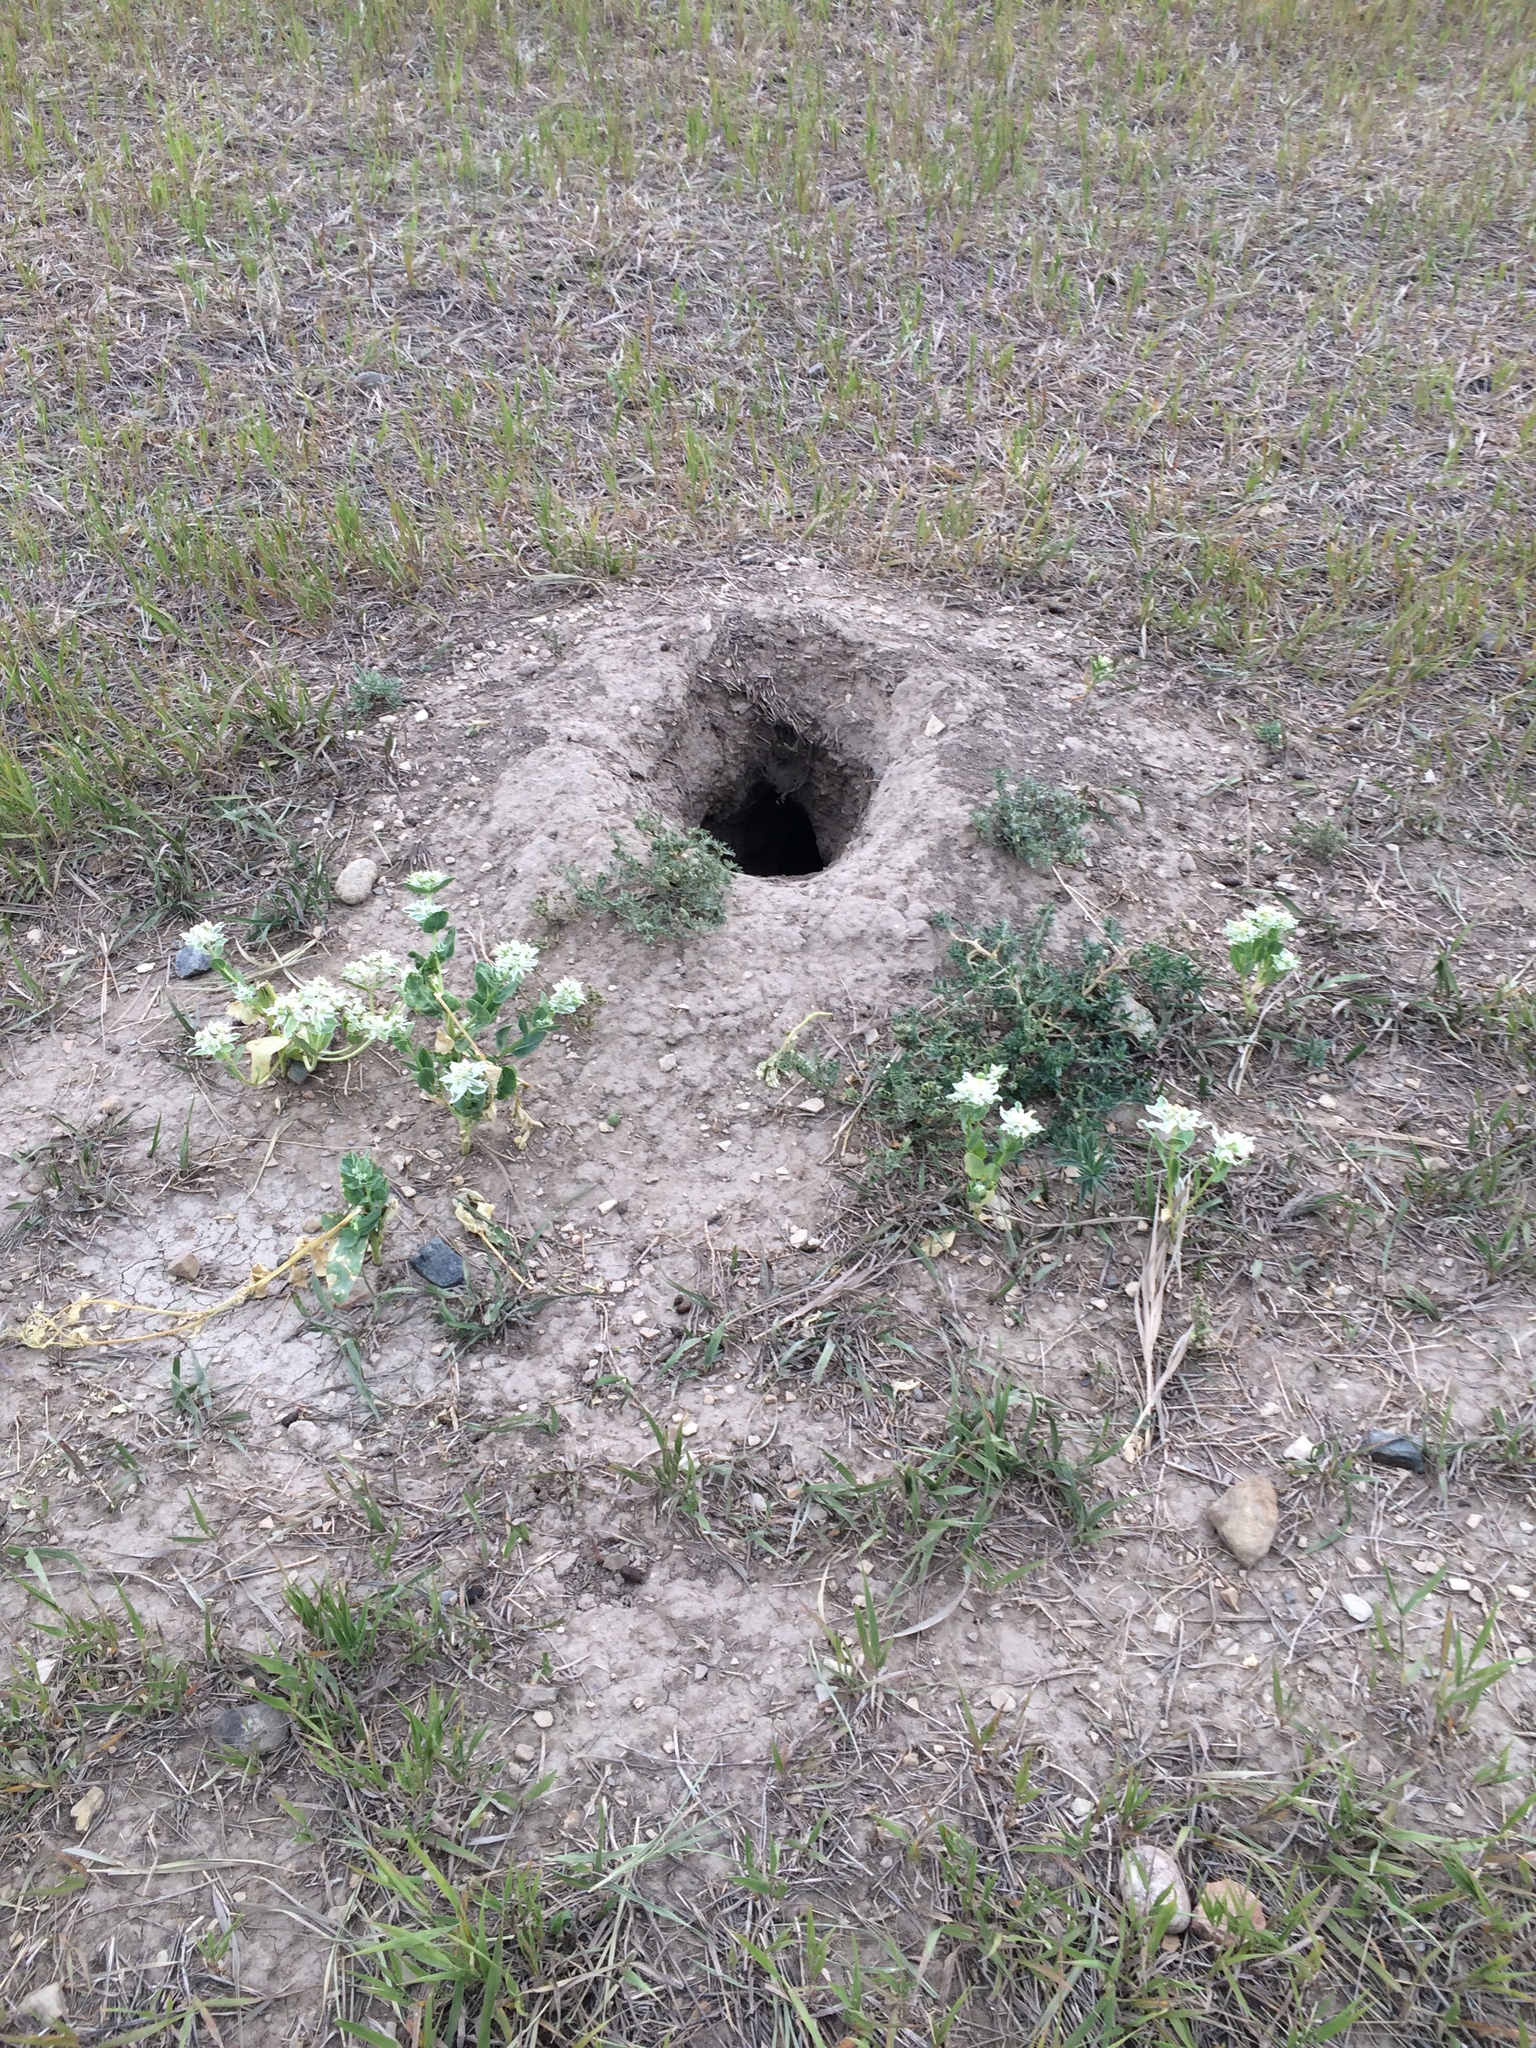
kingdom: Plantae
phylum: Tracheophyta
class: Magnoliopsida
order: Malpighiales
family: Euphorbiaceae
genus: Euphorbia
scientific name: Euphorbia marginata
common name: Ghostweed
